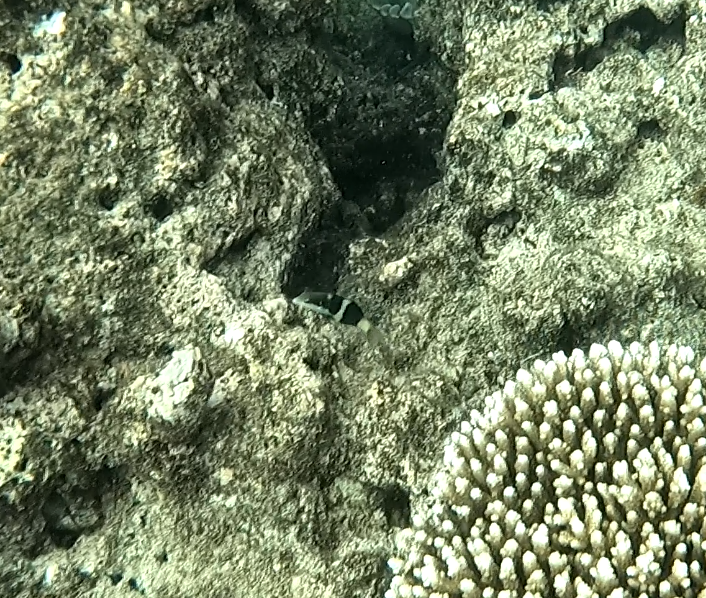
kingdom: Animalia
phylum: Chordata
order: Perciformes
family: Labridae
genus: Thalassoma
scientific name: Thalassoma nigrofasciatum
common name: Black-barred wrasse
